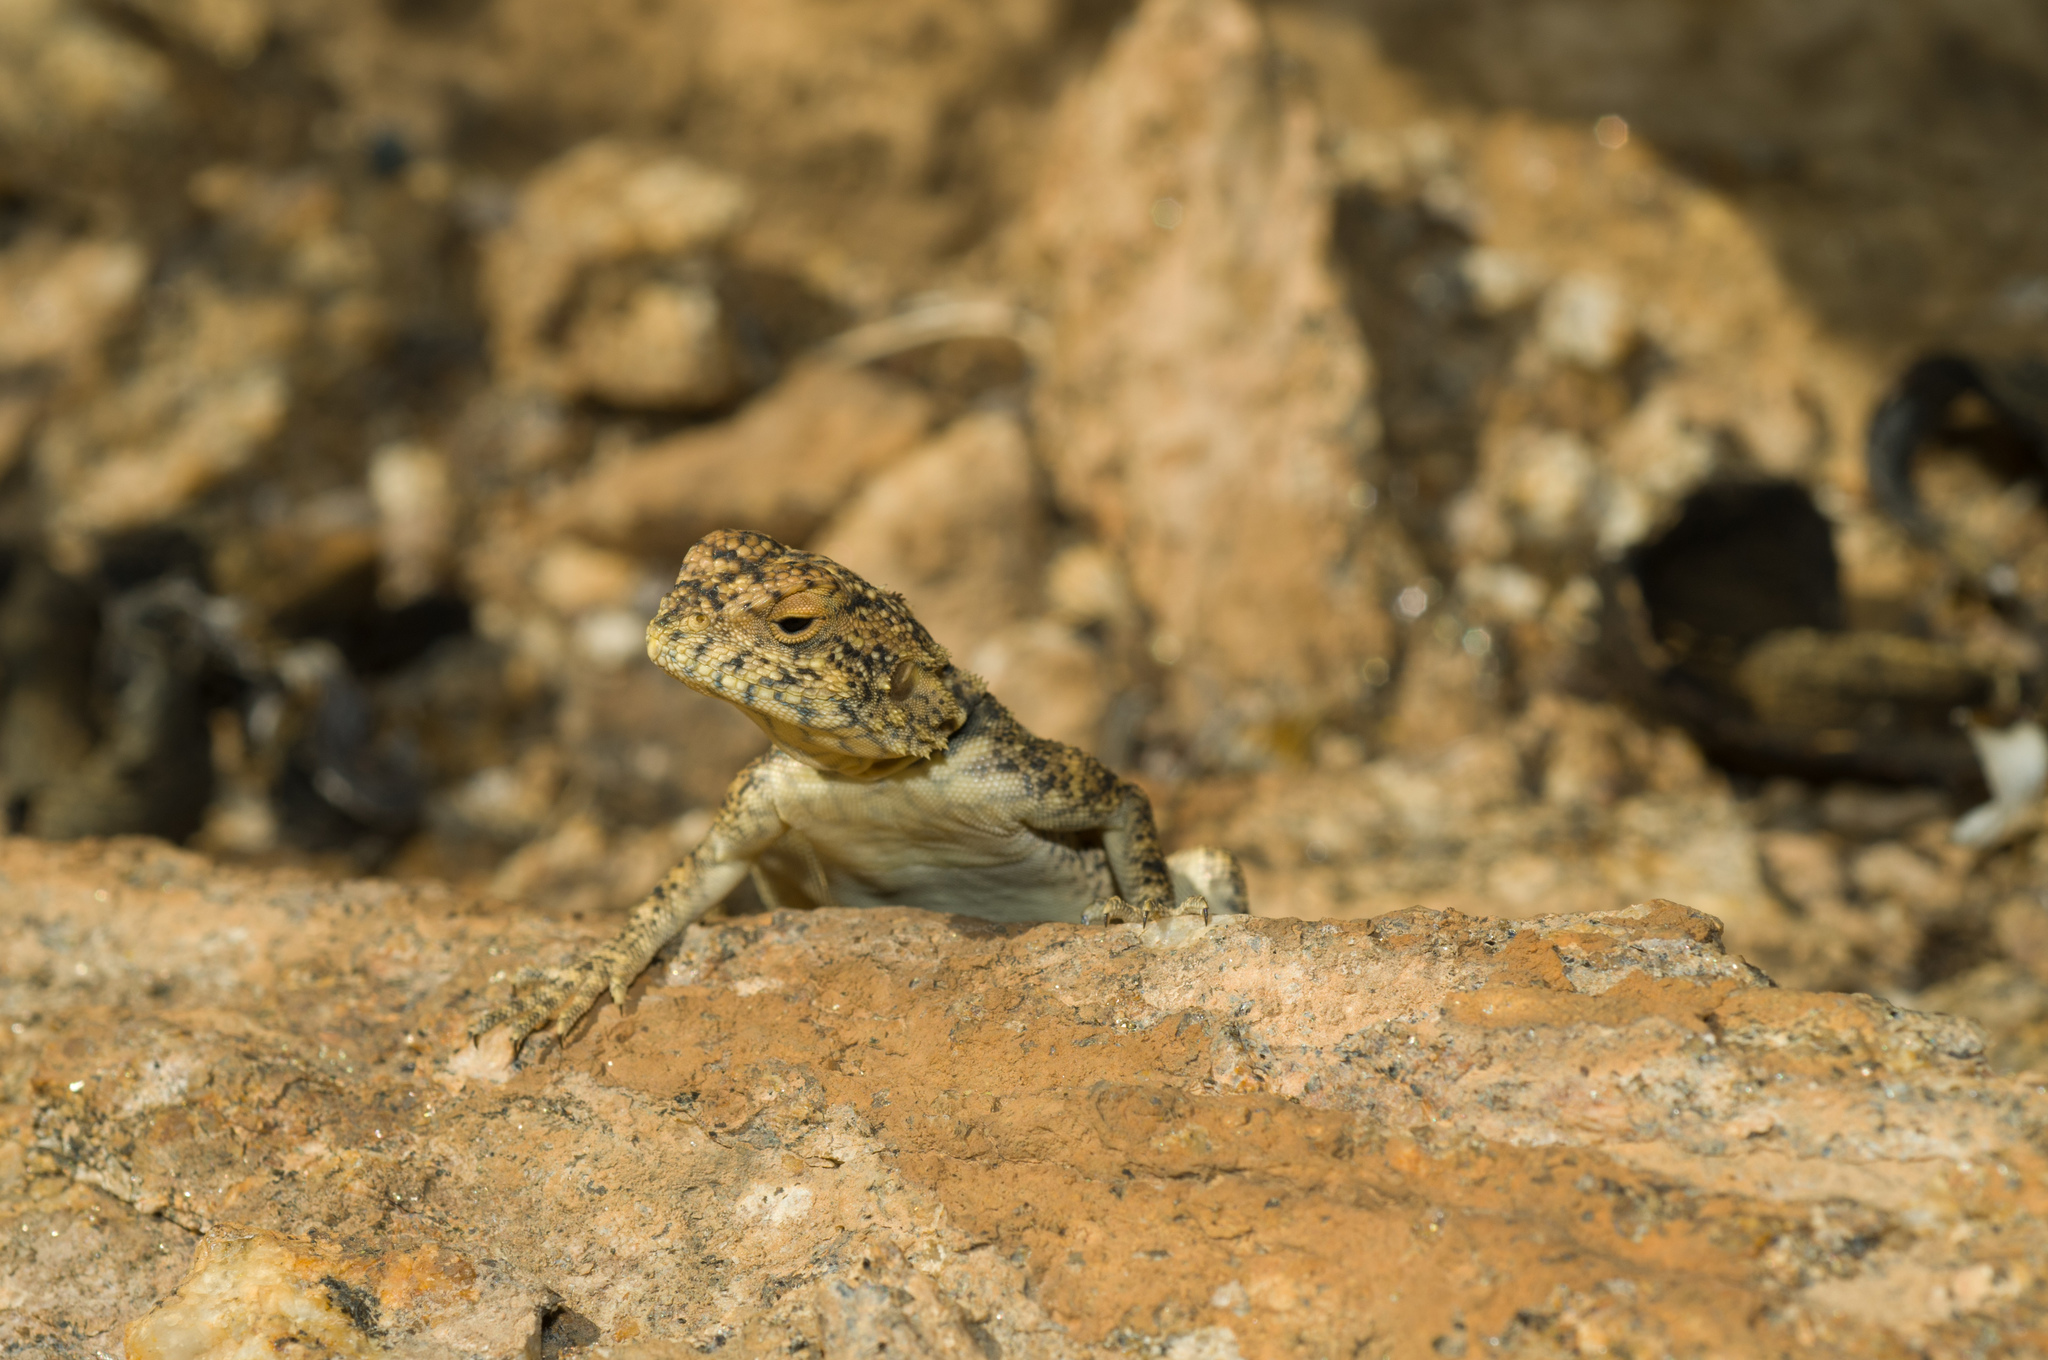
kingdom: Animalia
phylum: Chordata
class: Squamata
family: Agamidae
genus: Agama
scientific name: Agama atra
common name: Southern african rock agama
